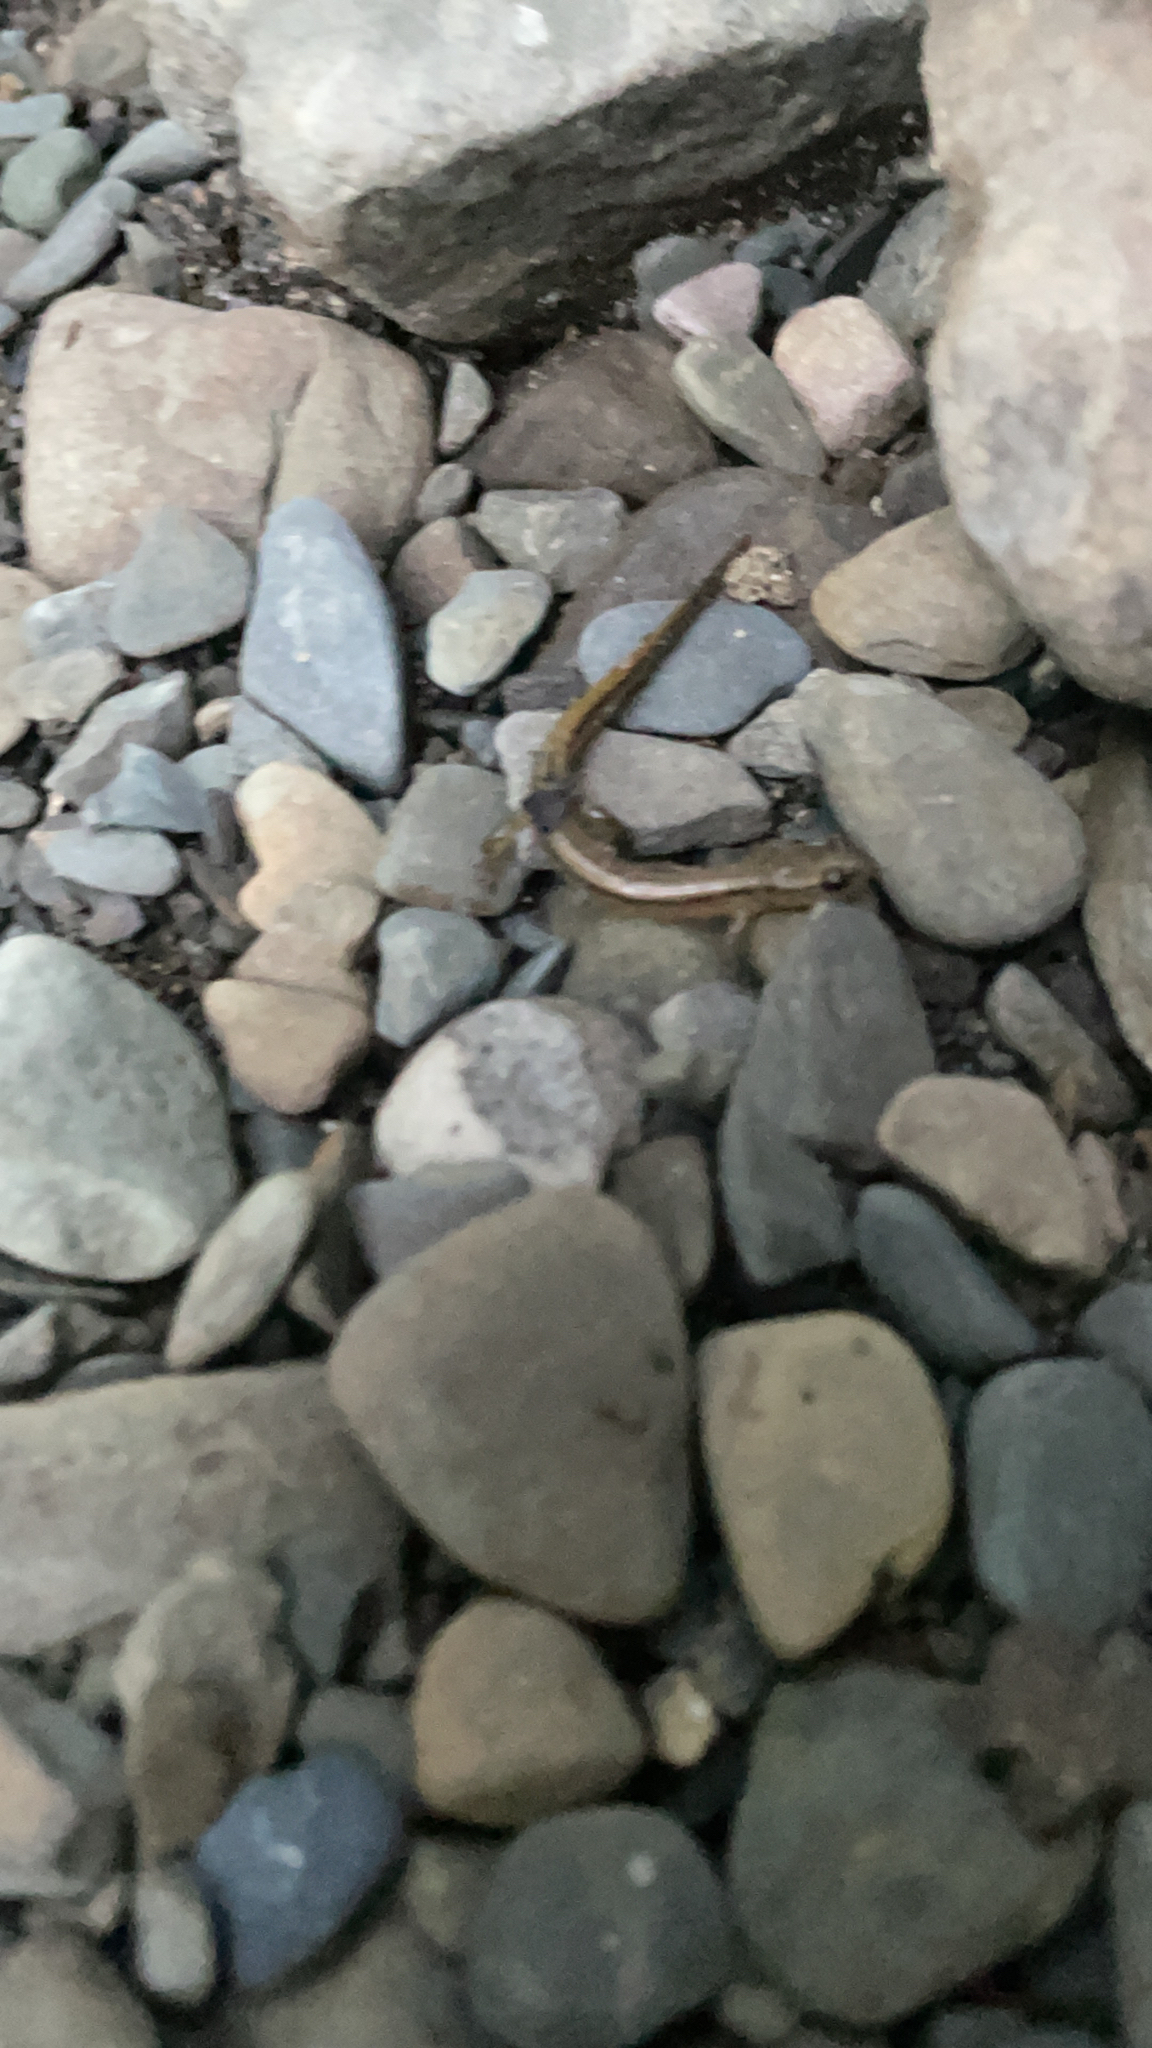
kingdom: Animalia
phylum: Chordata
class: Amphibia
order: Caudata
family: Plethodontidae
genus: Eurycea
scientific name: Eurycea bislineata
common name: Northern two-lined salamander
